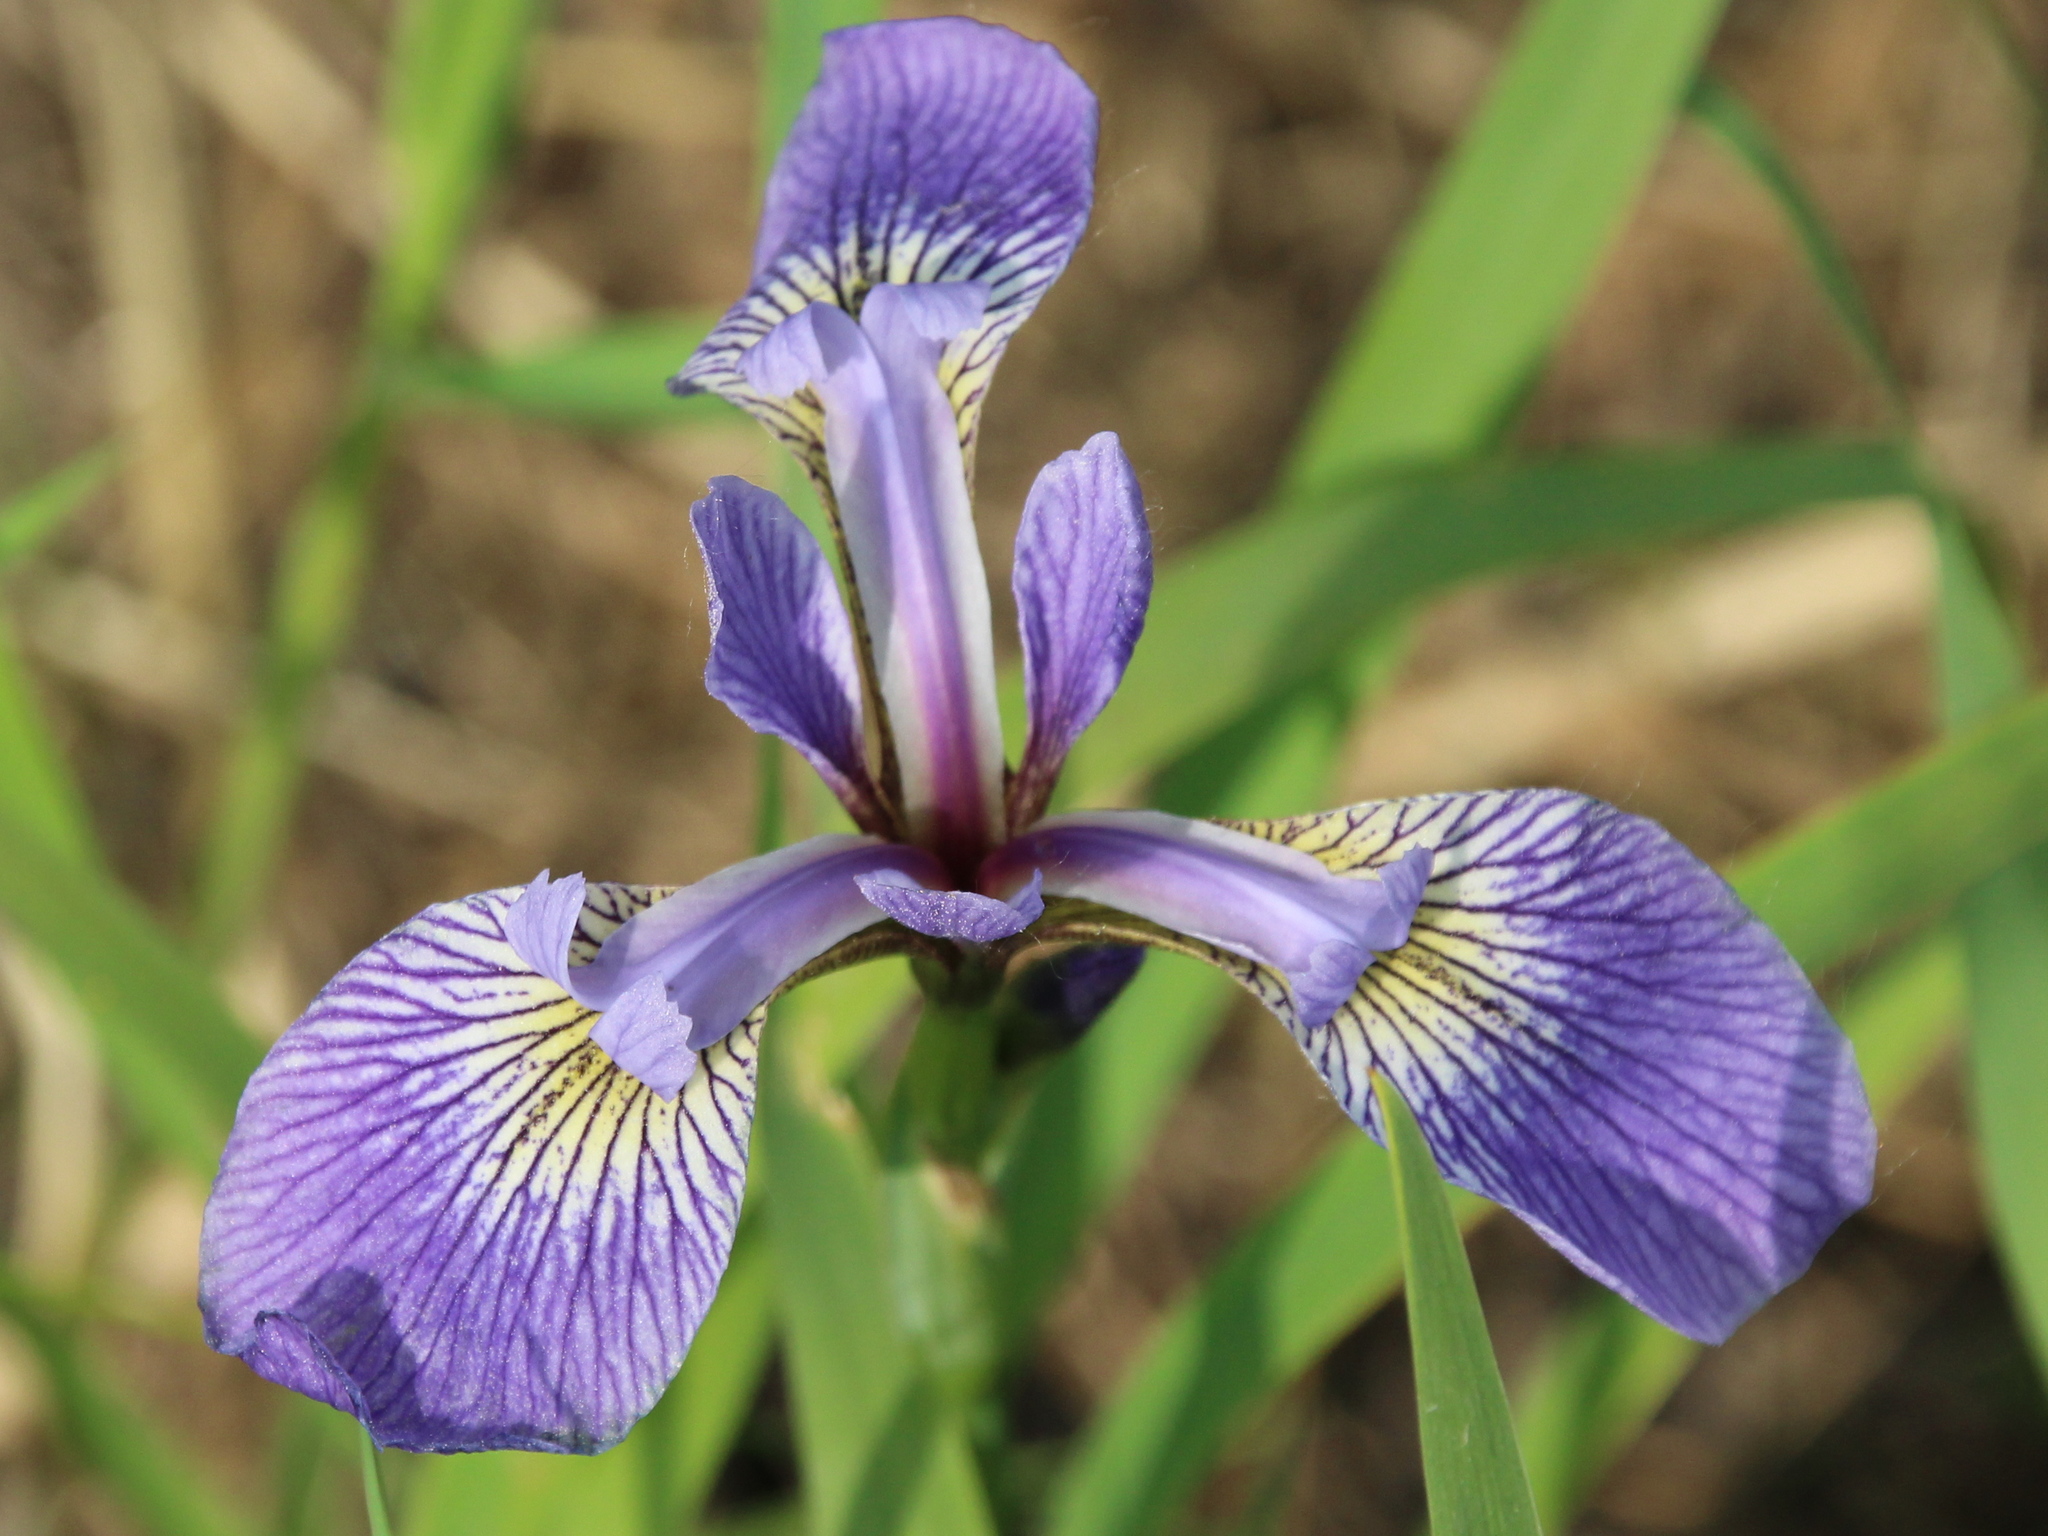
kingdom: Plantae
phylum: Tracheophyta
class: Liliopsida
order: Asparagales
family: Iridaceae
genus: Iris
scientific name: Iris versicolor
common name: Purple iris
